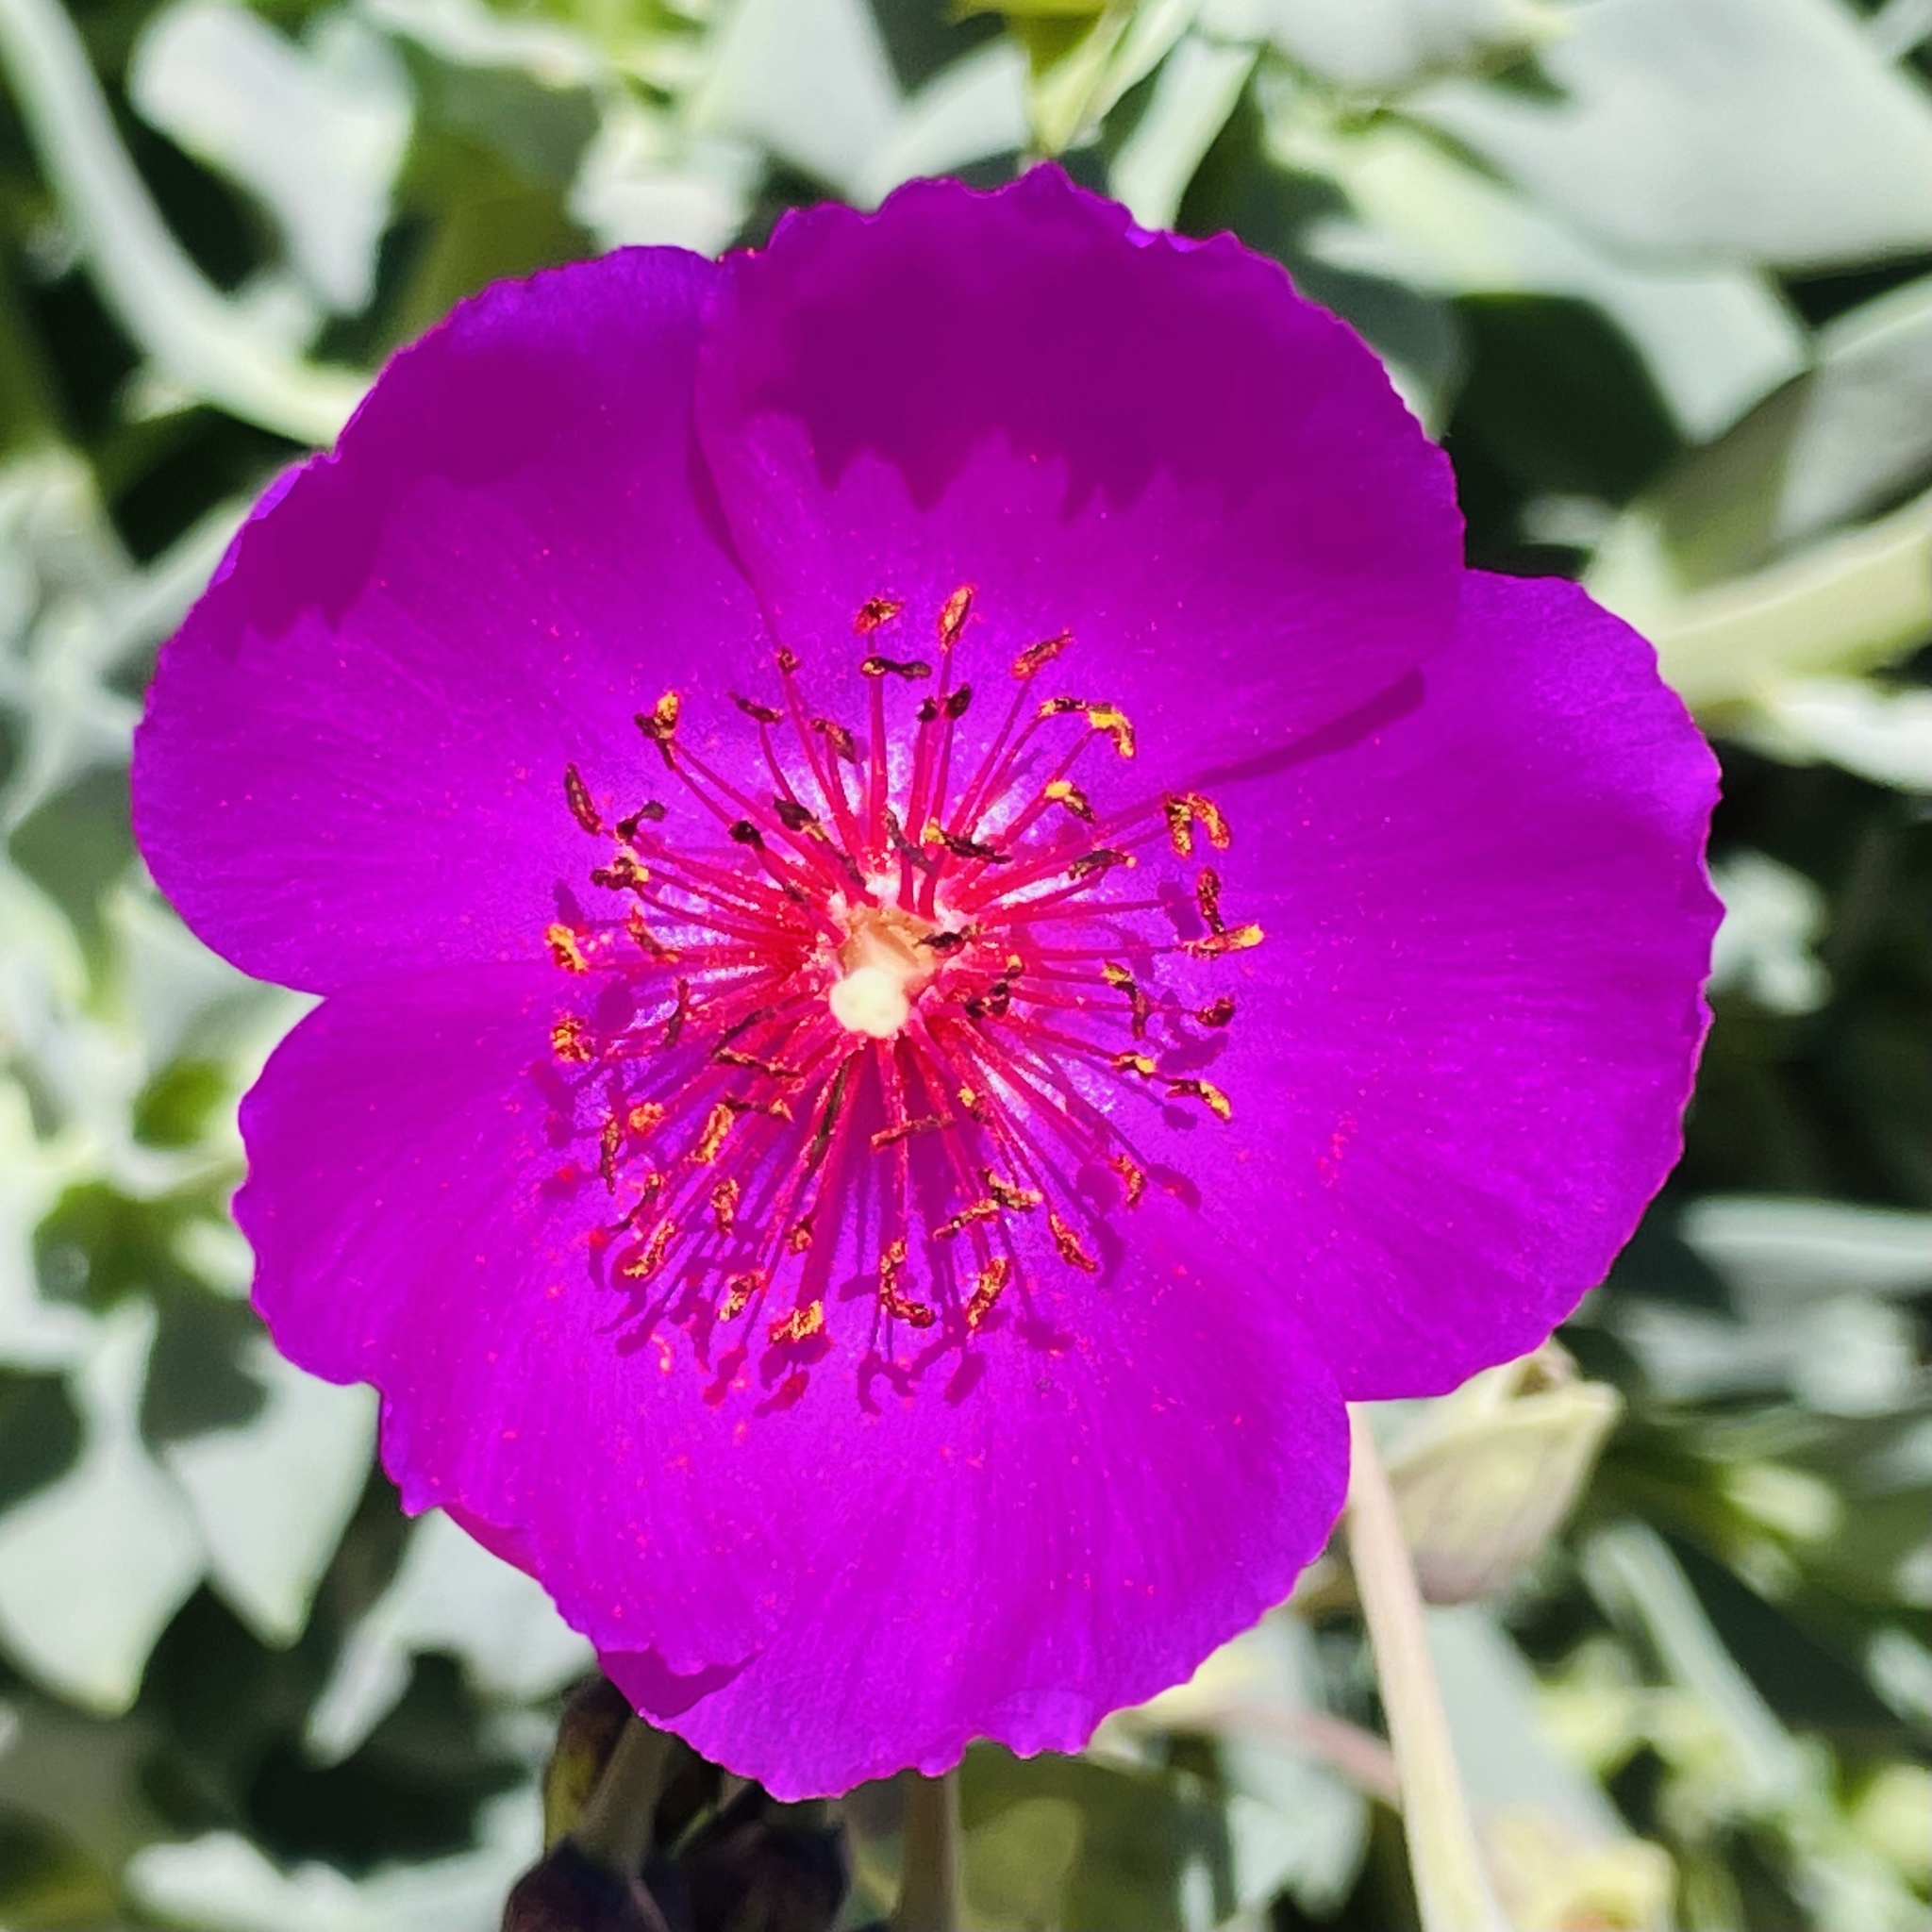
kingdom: Plantae
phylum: Tracheophyta
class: Magnoliopsida
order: Caryophyllales
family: Montiaceae
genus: Cistanthe
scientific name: Cistanthe grandiflora
